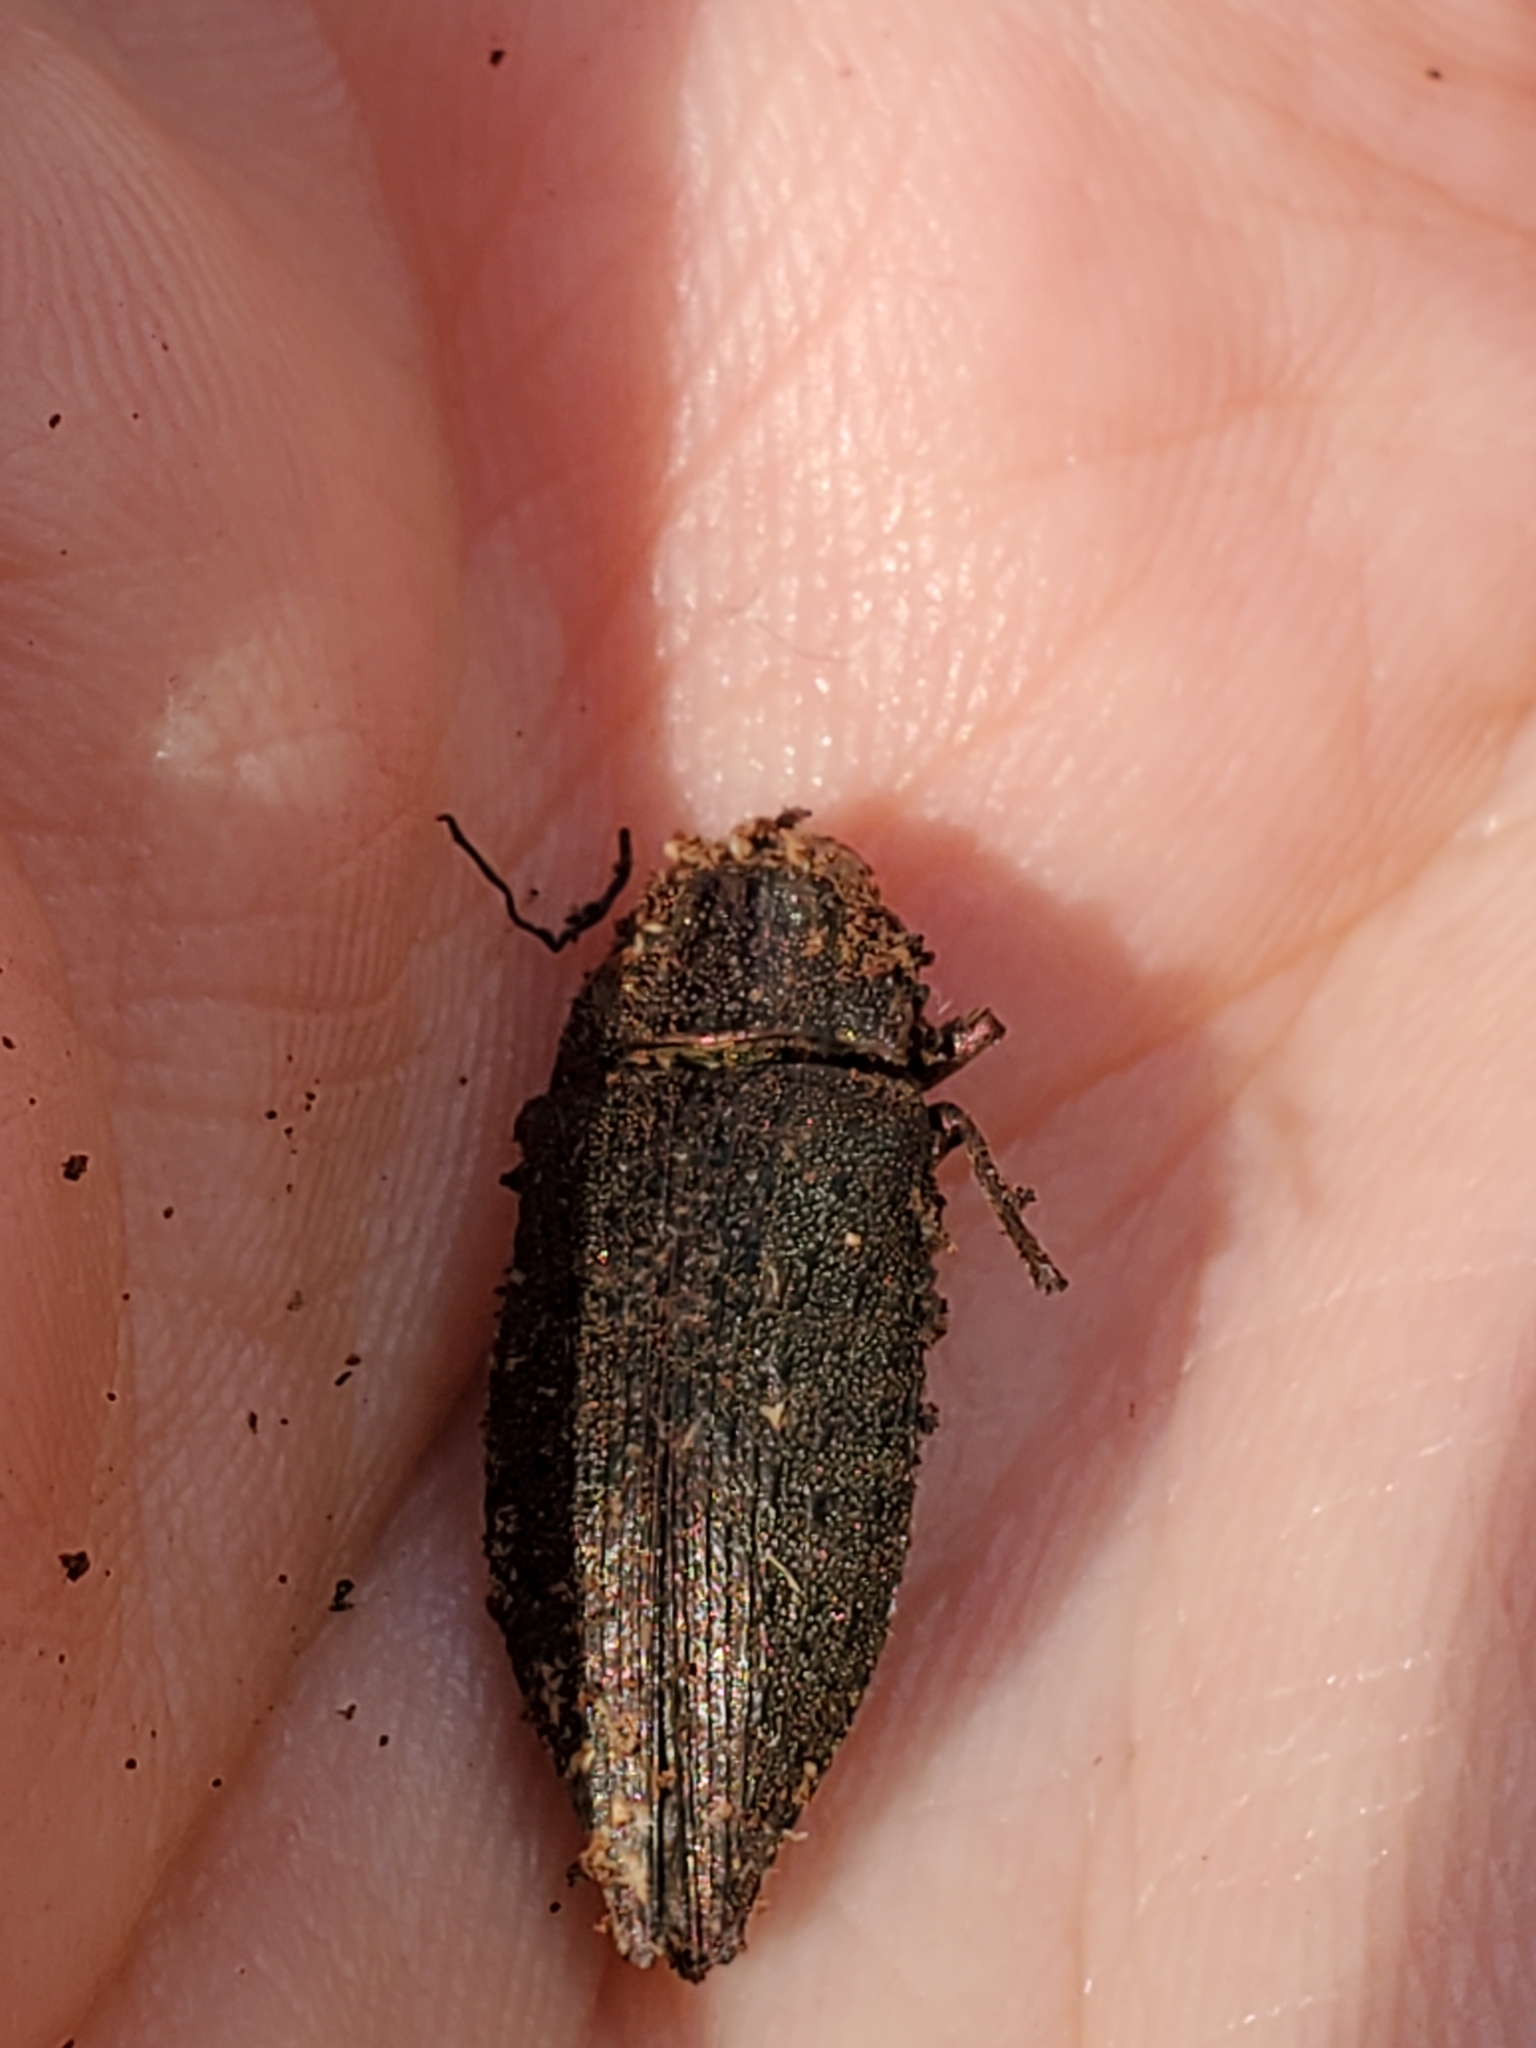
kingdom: Animalia
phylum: Arthropoda
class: Insecta
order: Coleoptera
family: Buprestidae
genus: Dicerca
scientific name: Dicerca hornii
